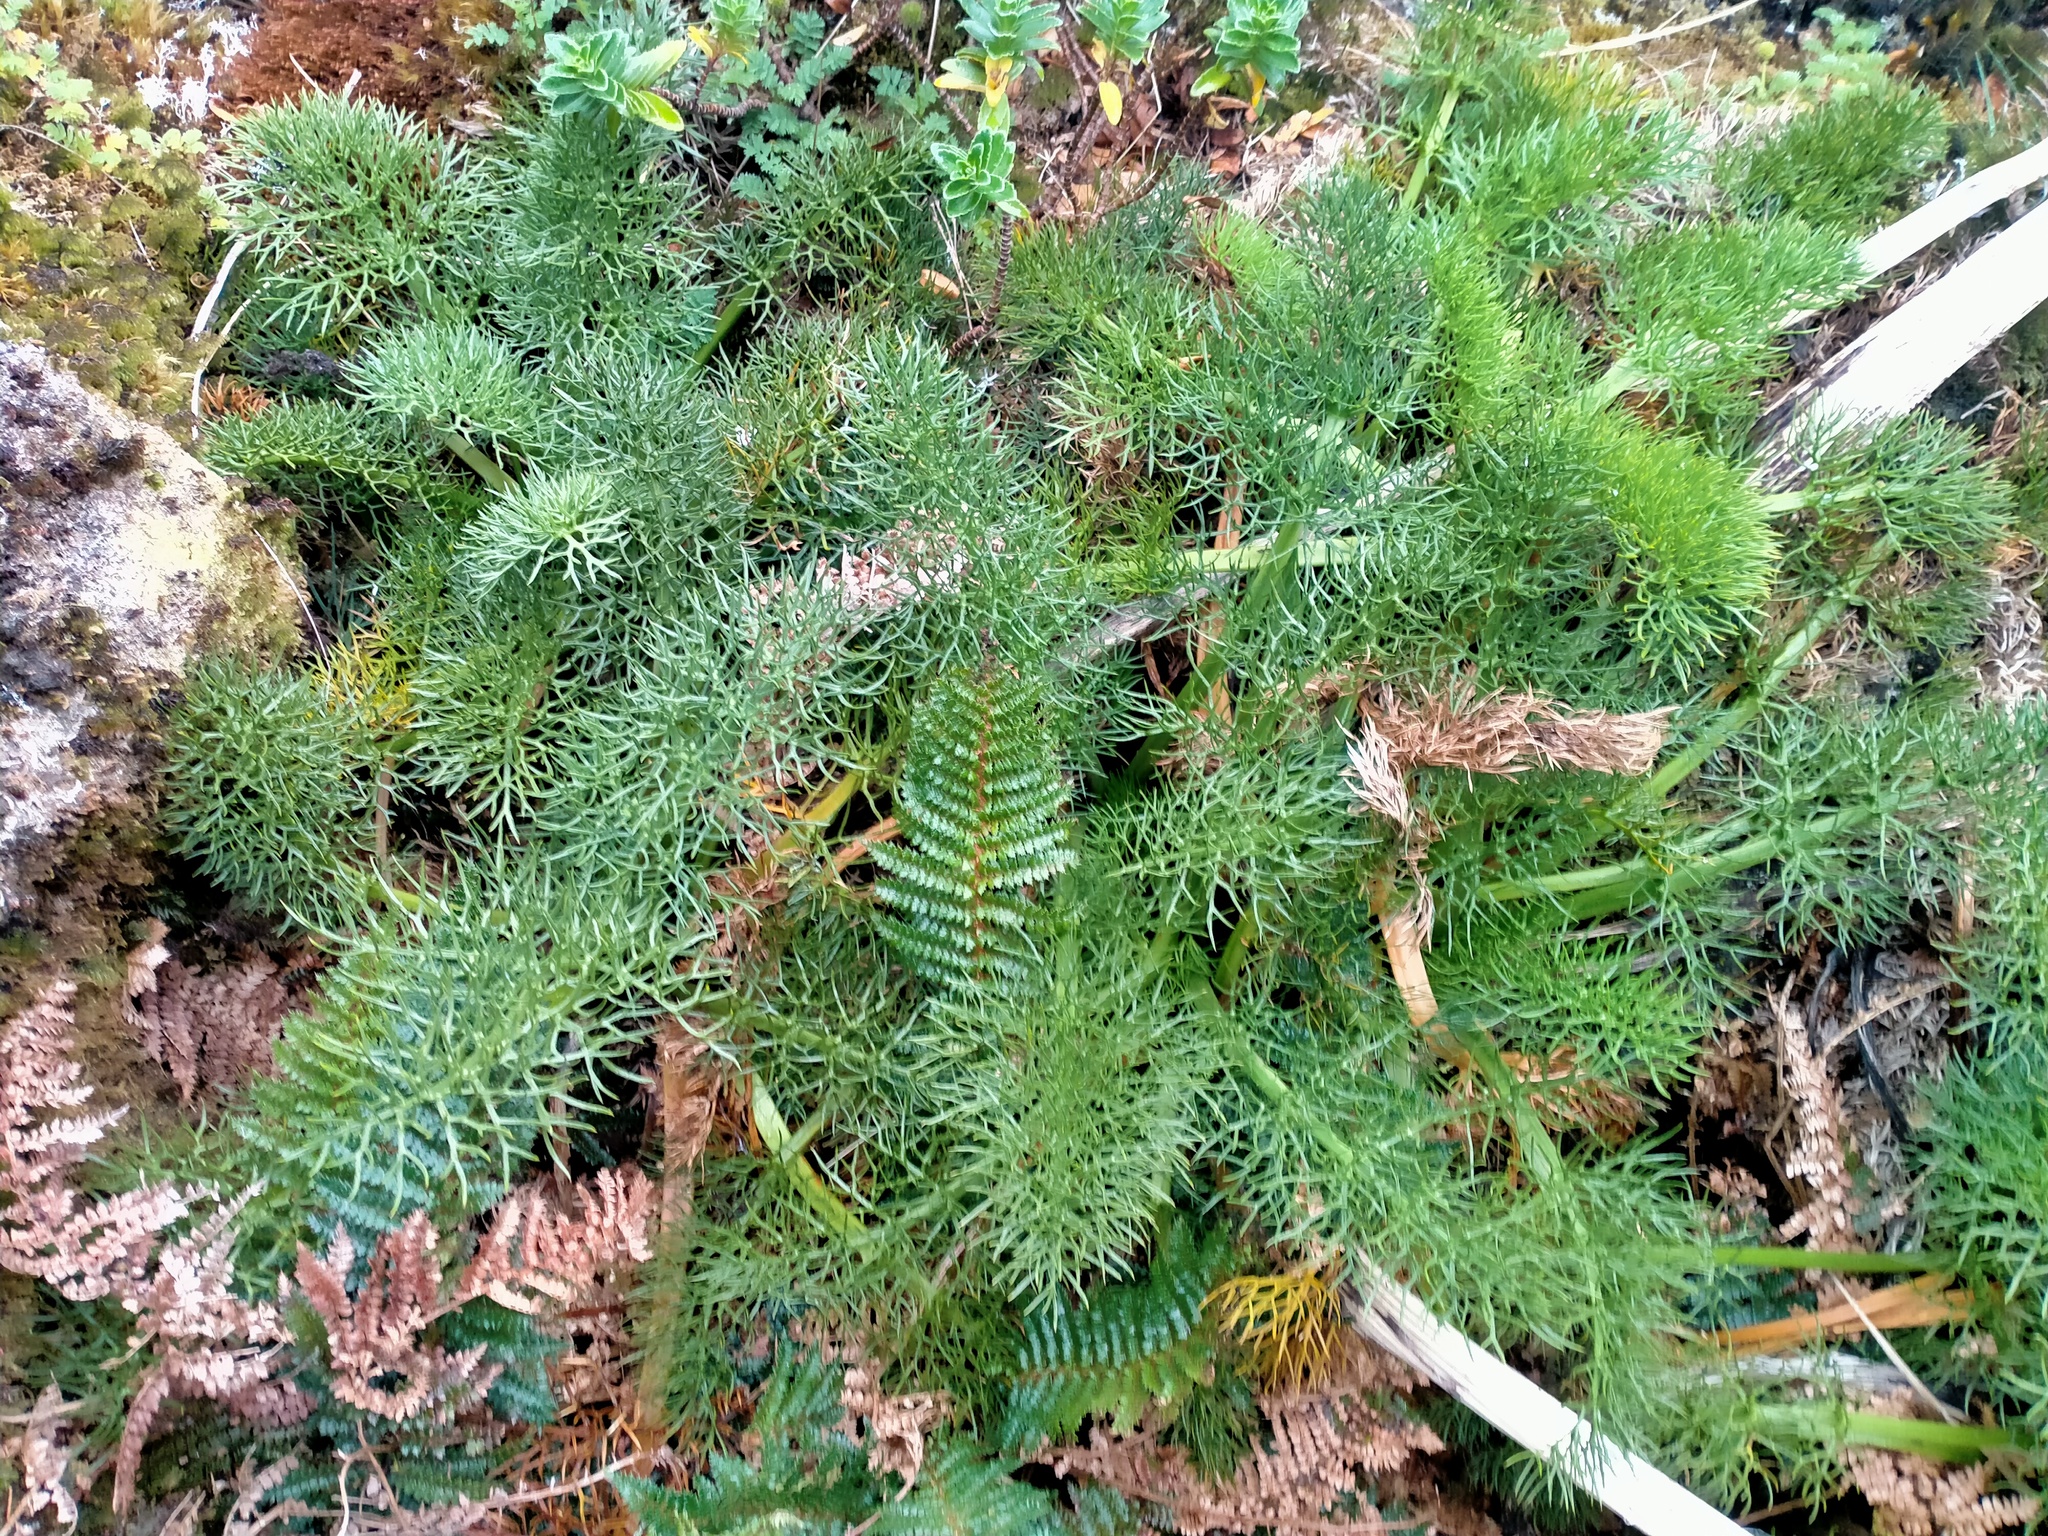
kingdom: Plantae
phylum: Tracheophyta
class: Magnoliopsida
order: Apiales
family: Apiaceae
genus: Anisotome
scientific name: Anisotome antipoda
